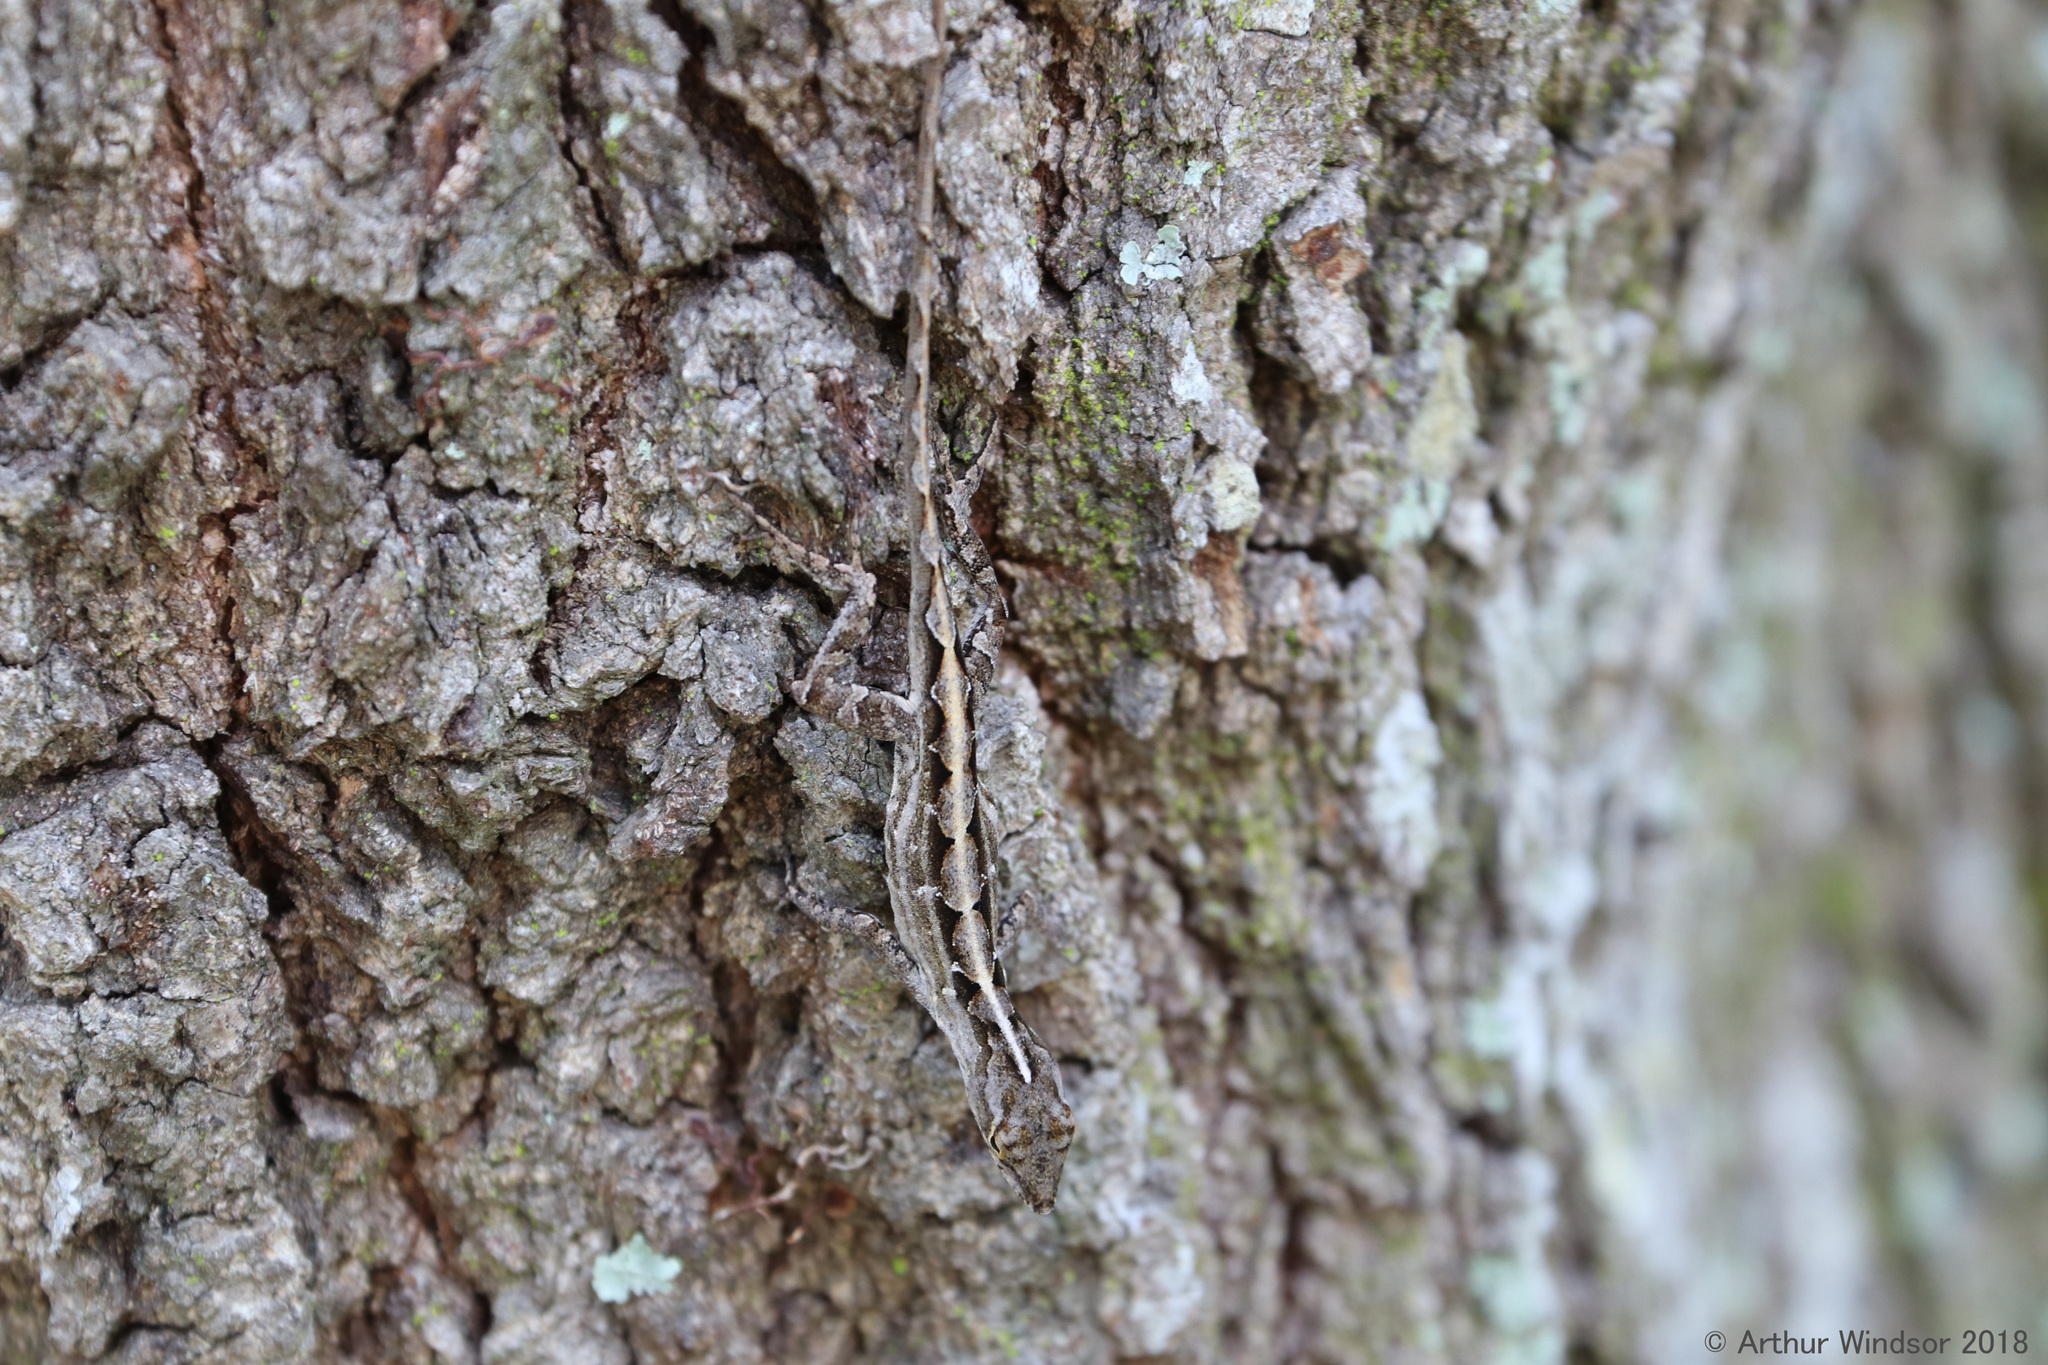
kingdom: Animalia
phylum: Chordata
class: Squamata
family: Dactyloidae
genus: Anolis
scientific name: Anolis sagrei
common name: Brown anole
